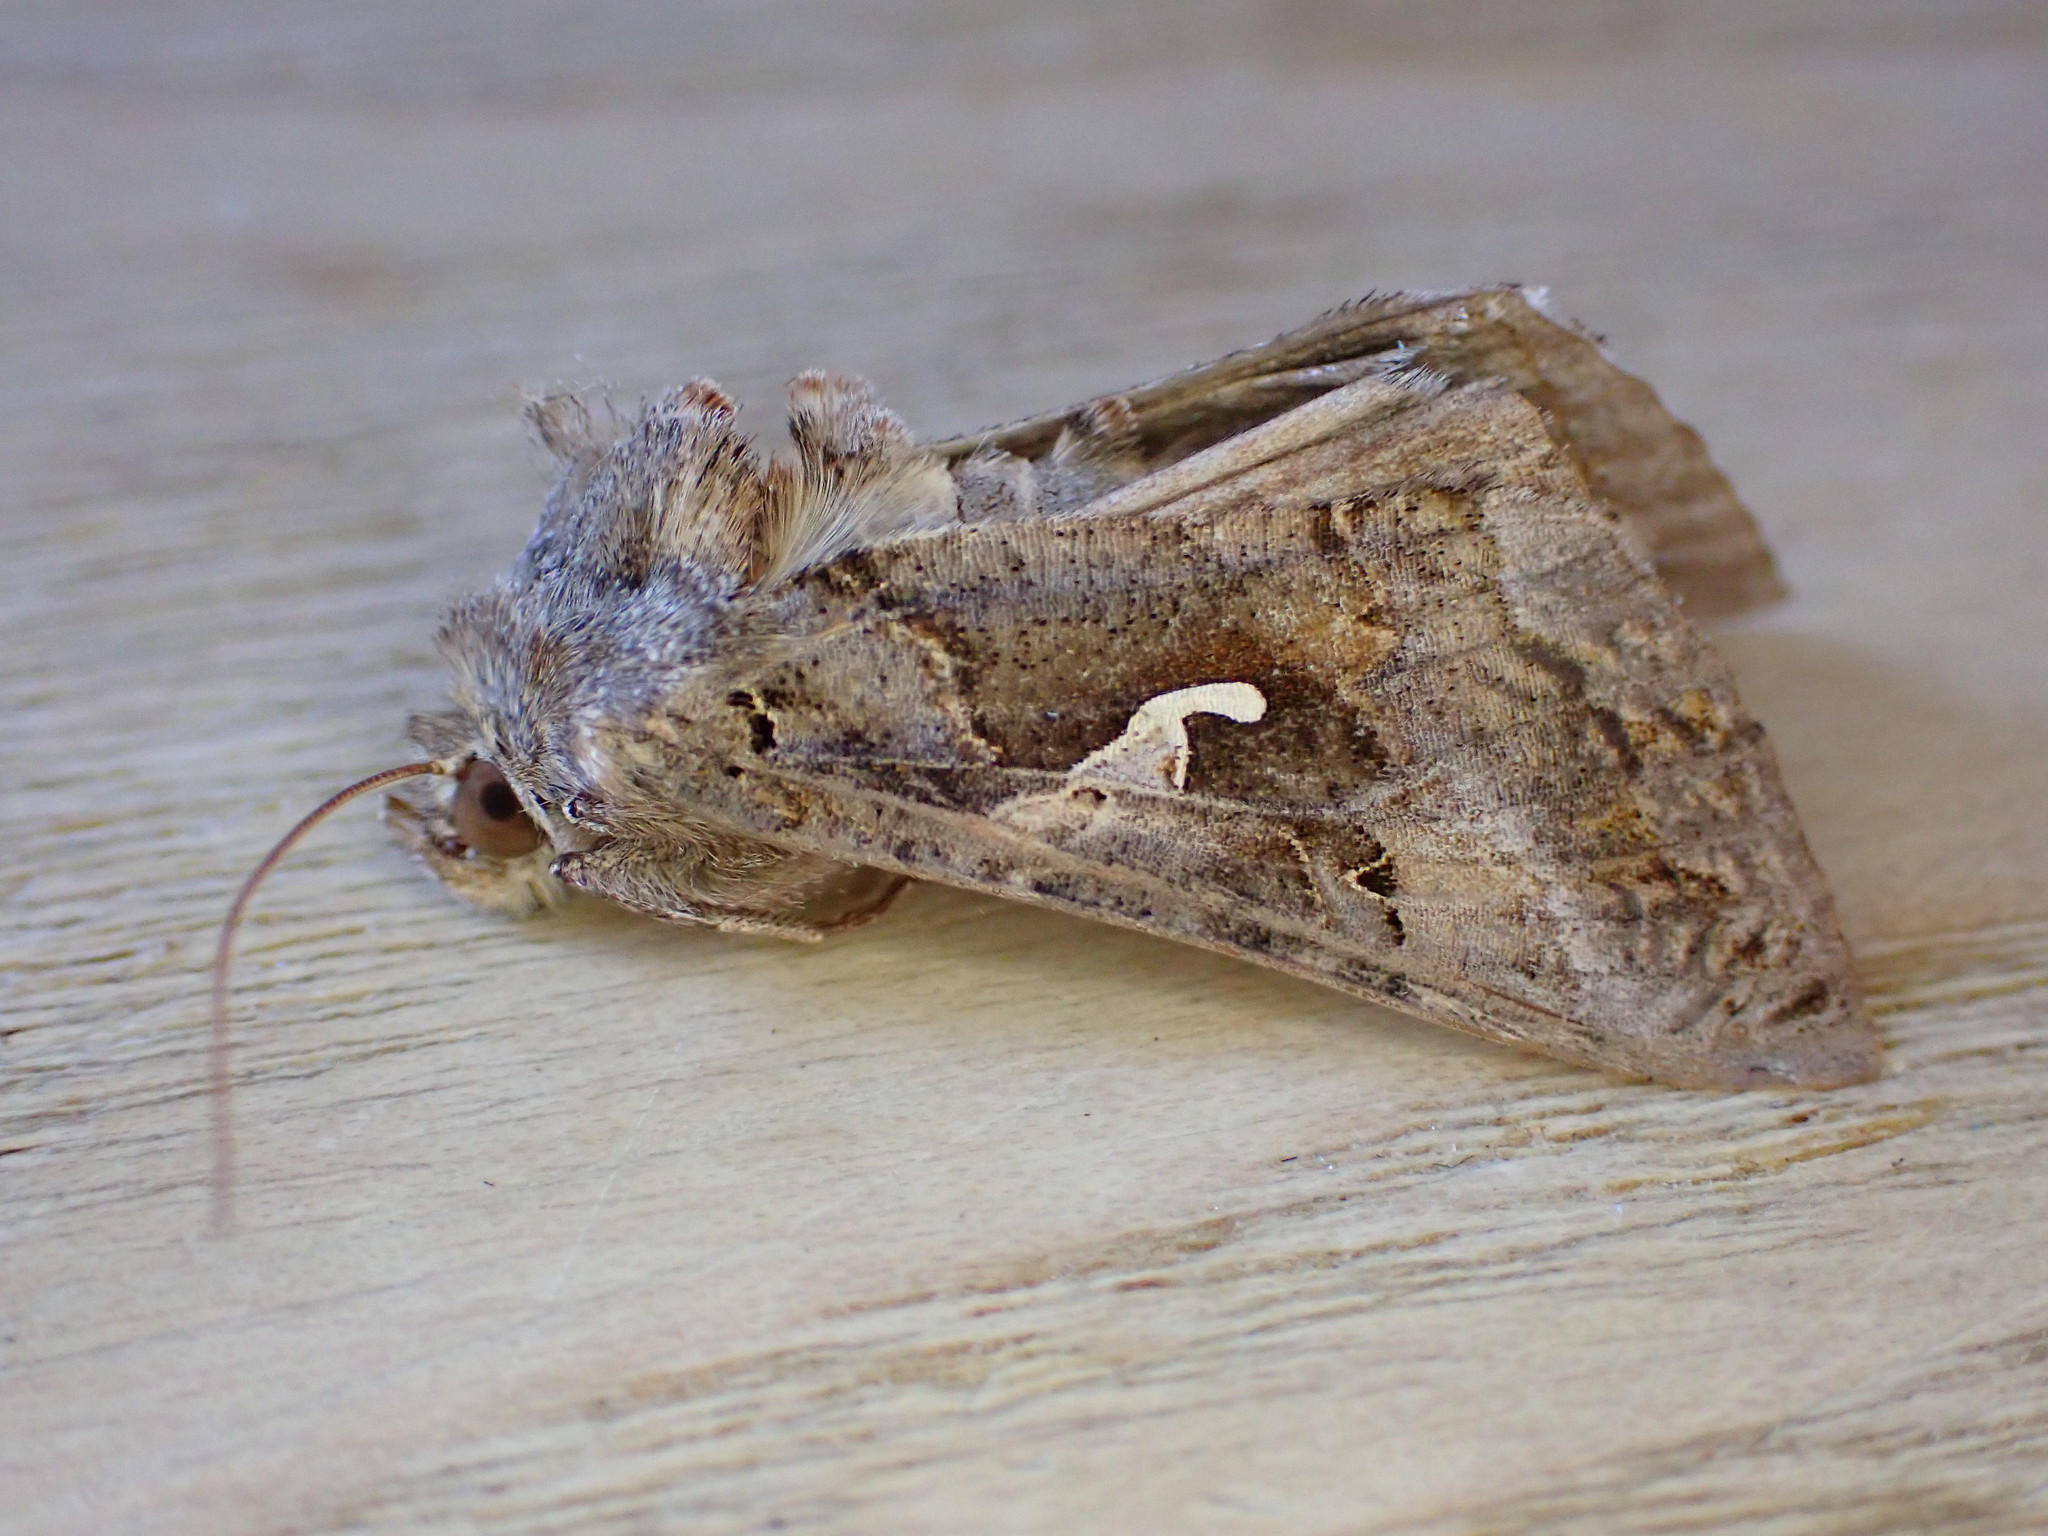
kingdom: Animalia
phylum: Arthropoda
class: Insecta
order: Lepidoptera
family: Noctuidae
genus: Autographa
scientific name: Autographa gamma
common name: Silver y
